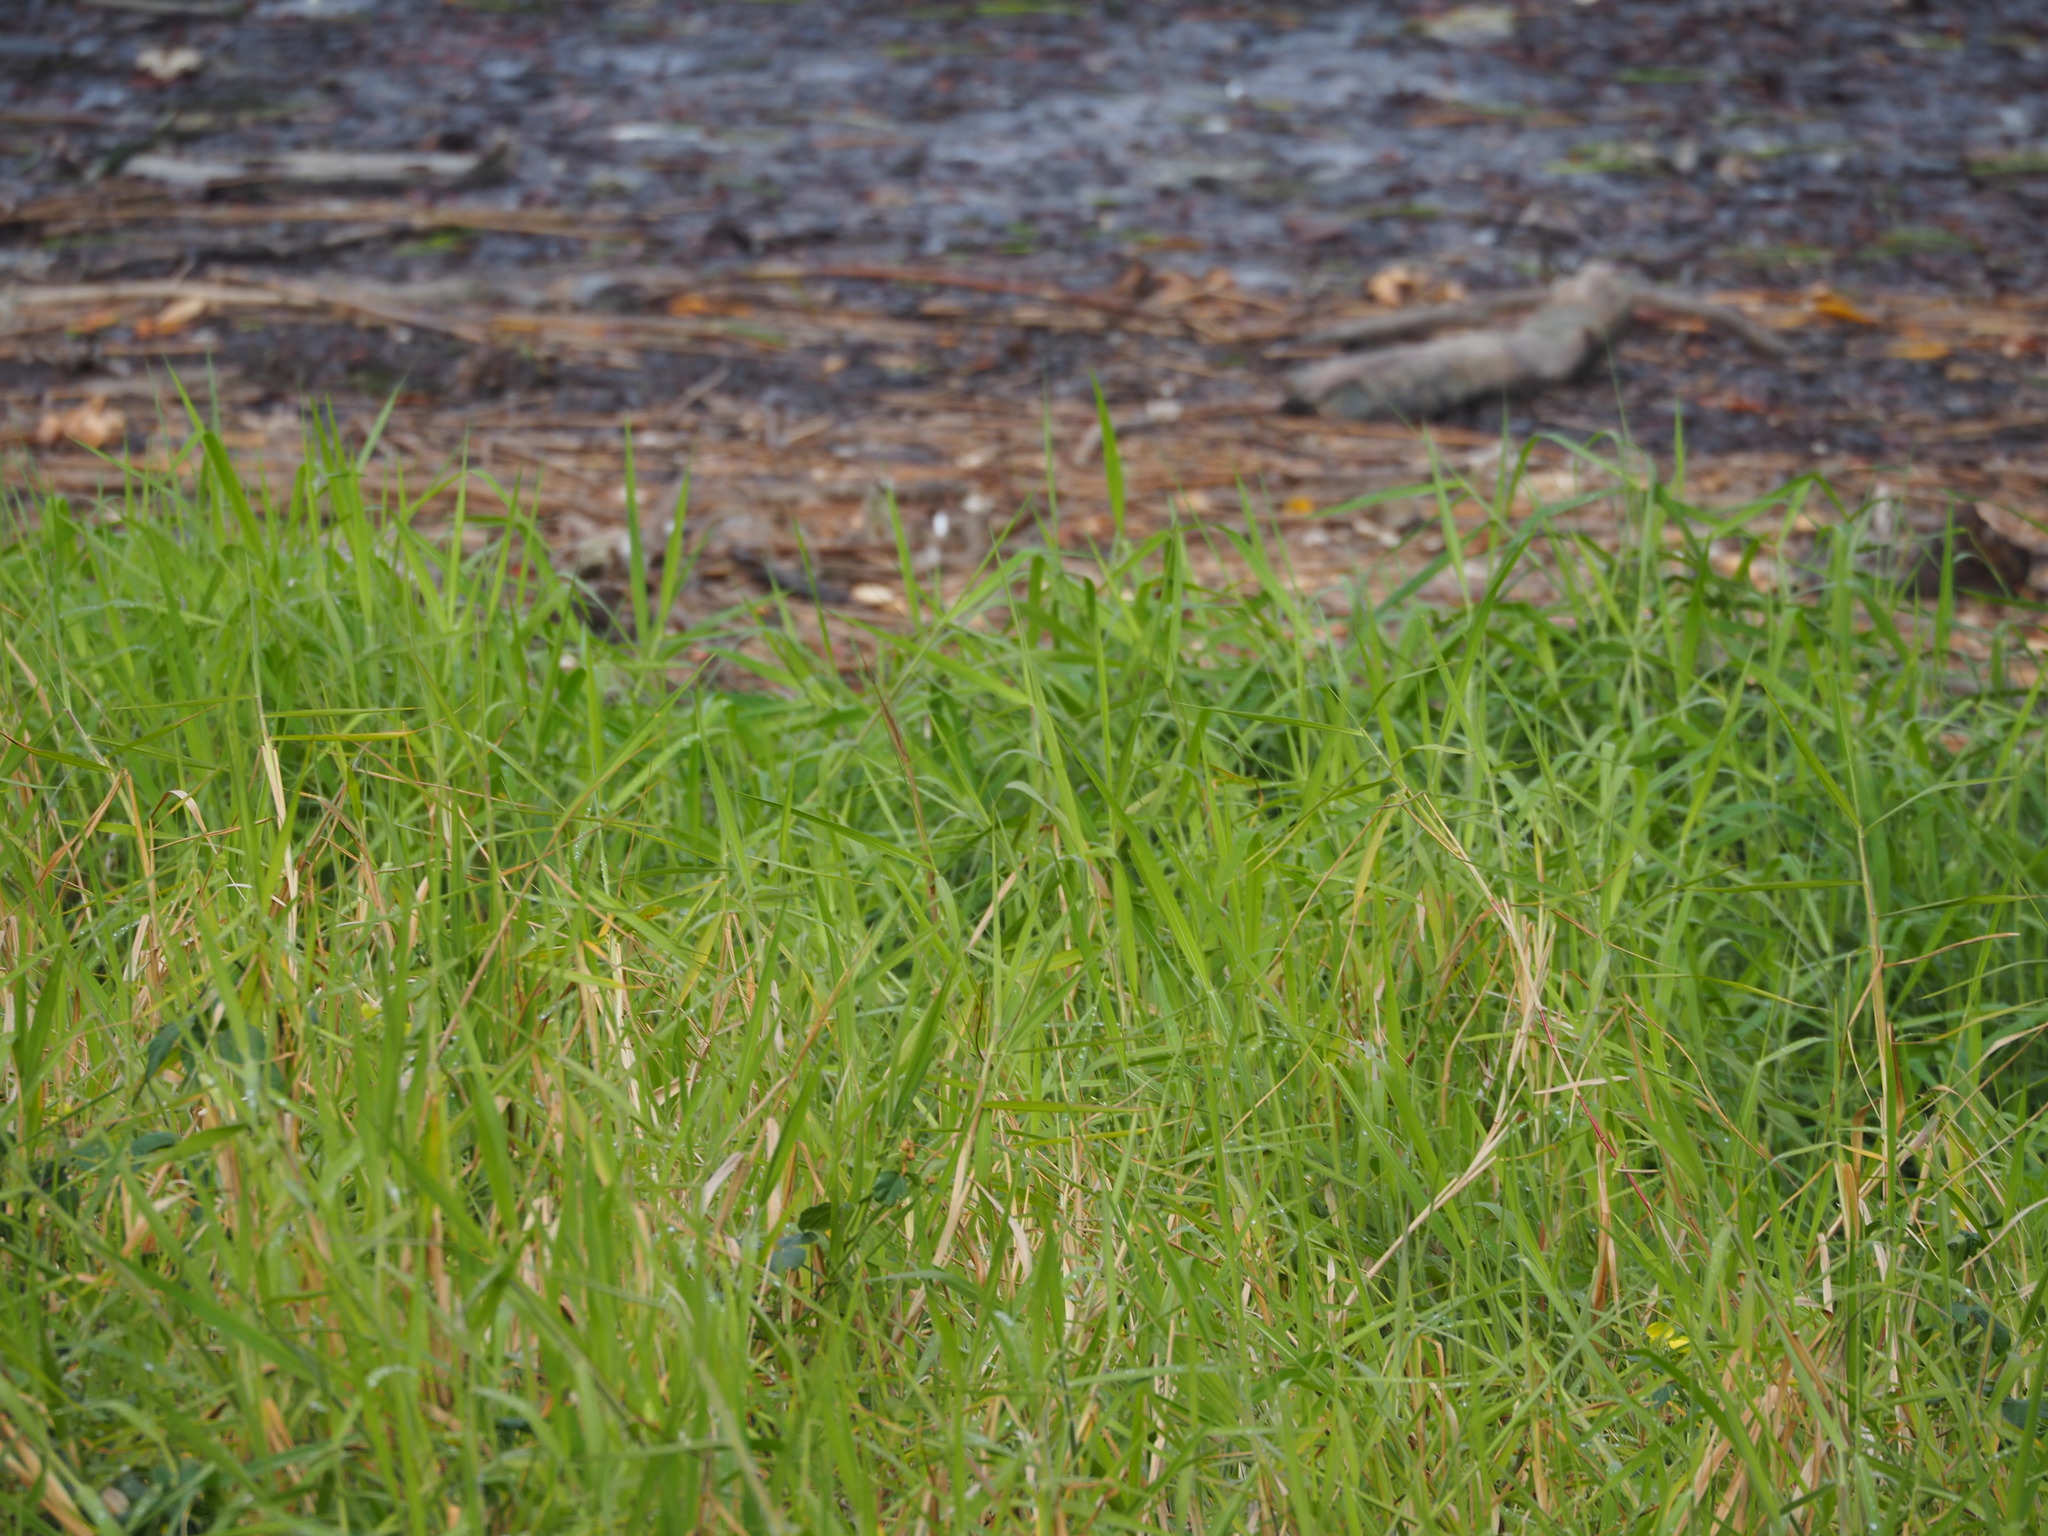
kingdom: Plantae
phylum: Tracheophyta
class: Liliopsida
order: Poales
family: Poaceae
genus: Urochloa
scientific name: Urochloa mutica
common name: Para grass
